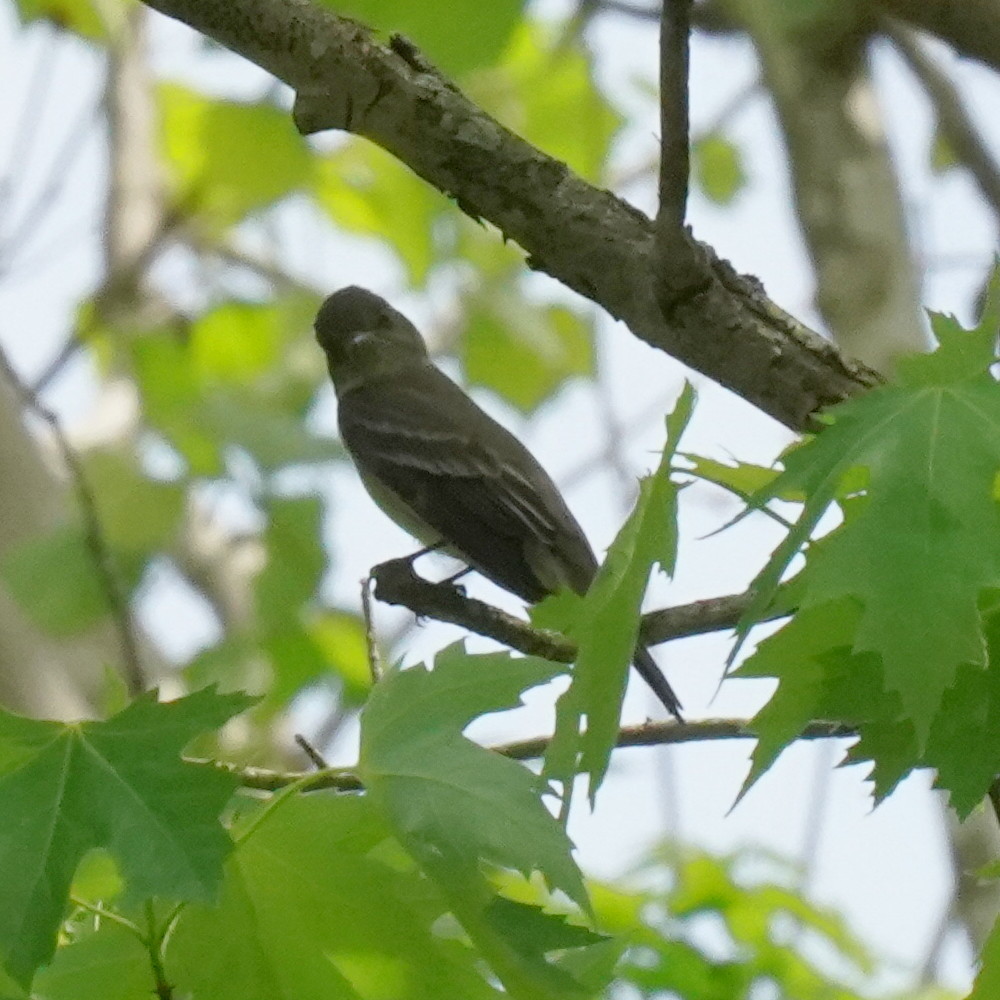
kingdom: Animalia
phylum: Chordata
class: Aves
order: Passeriformes
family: Tyrannidae
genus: Contopus
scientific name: Contopus virens
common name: Eastern wood-pewee
